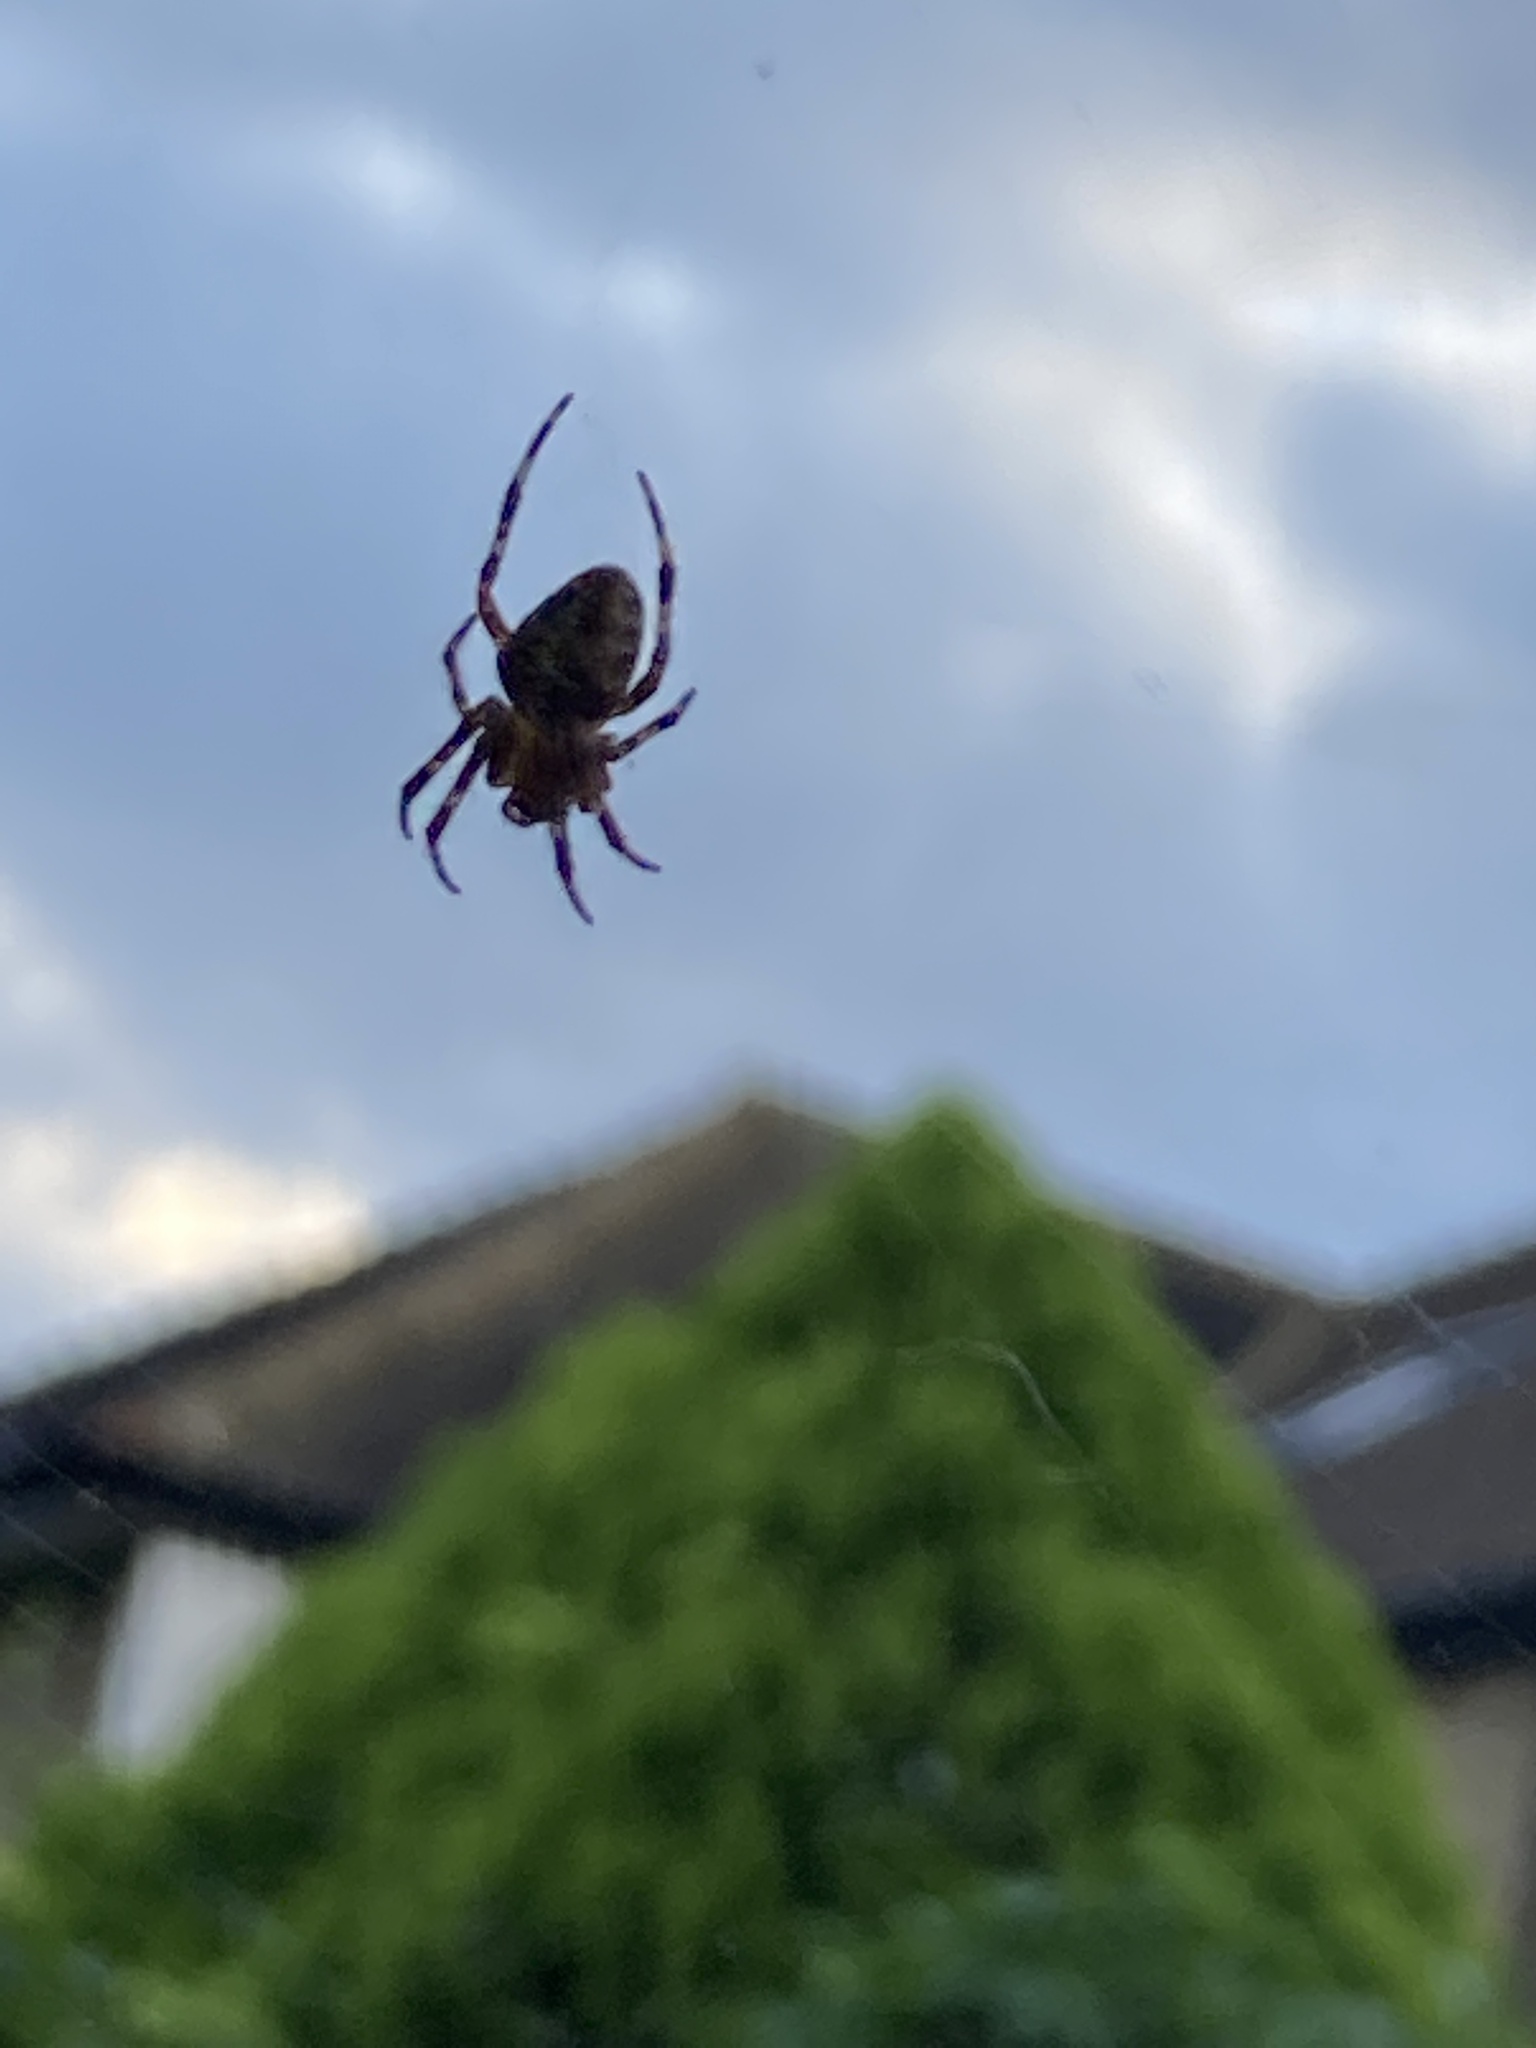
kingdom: Animalia
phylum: Arthropoda
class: Arachnida
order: Araneae
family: Araneidae
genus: Araneus
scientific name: Araneus diadematus
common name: Cross orbweaver
